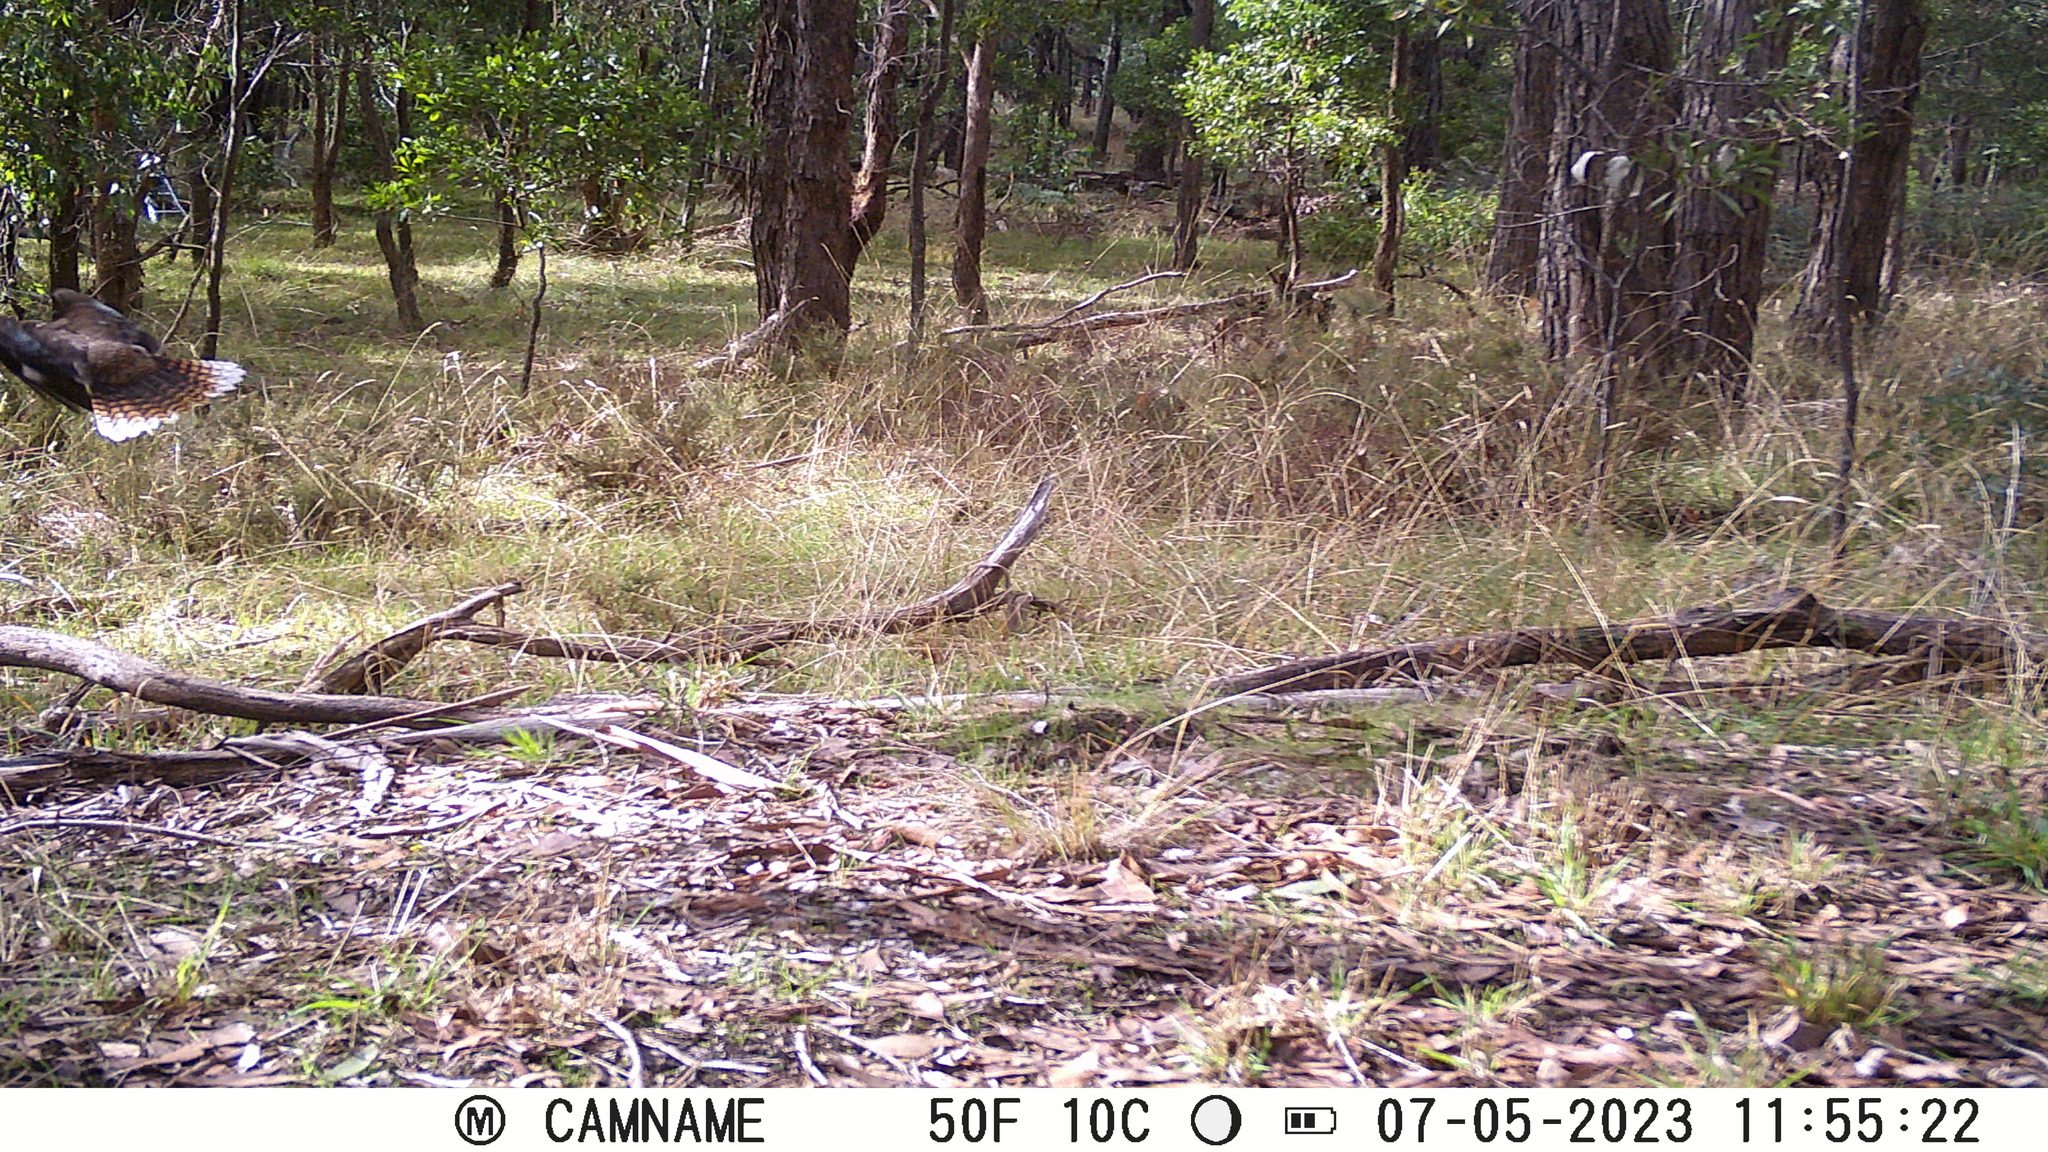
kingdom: Animalia
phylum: Chordata
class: Aves
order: Coraciiformes
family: Alcedinidae
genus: Dacelo
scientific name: Dacelo novaeguineae
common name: Laughing kookaburra
